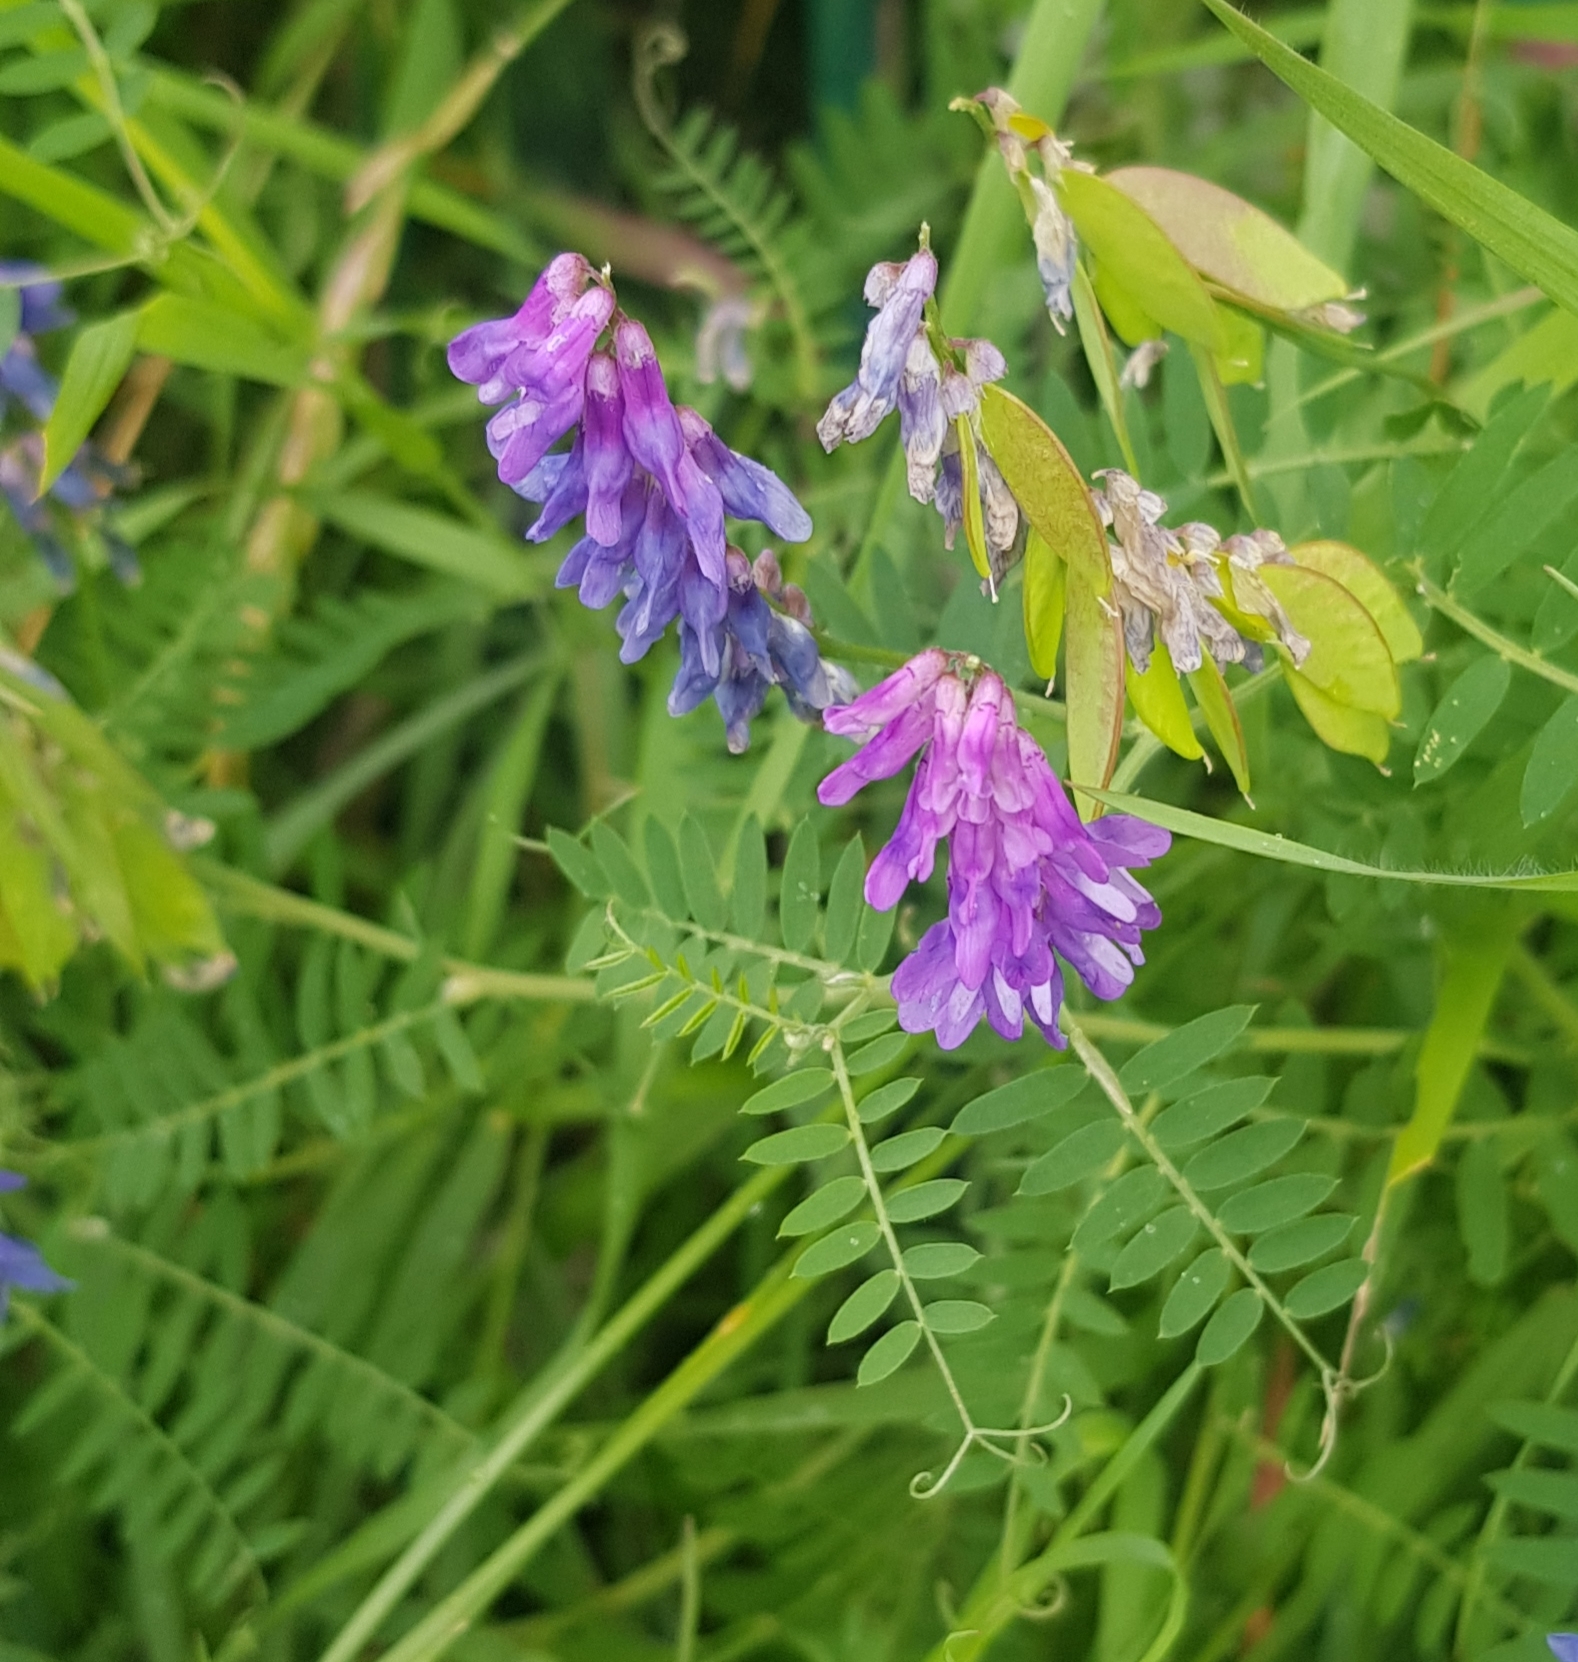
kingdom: Plantae
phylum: Tracheophyta
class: Magnoliopsida
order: Fabales
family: Fabaceae
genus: Vicia
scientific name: Vicia cracca
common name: Bird vetch
